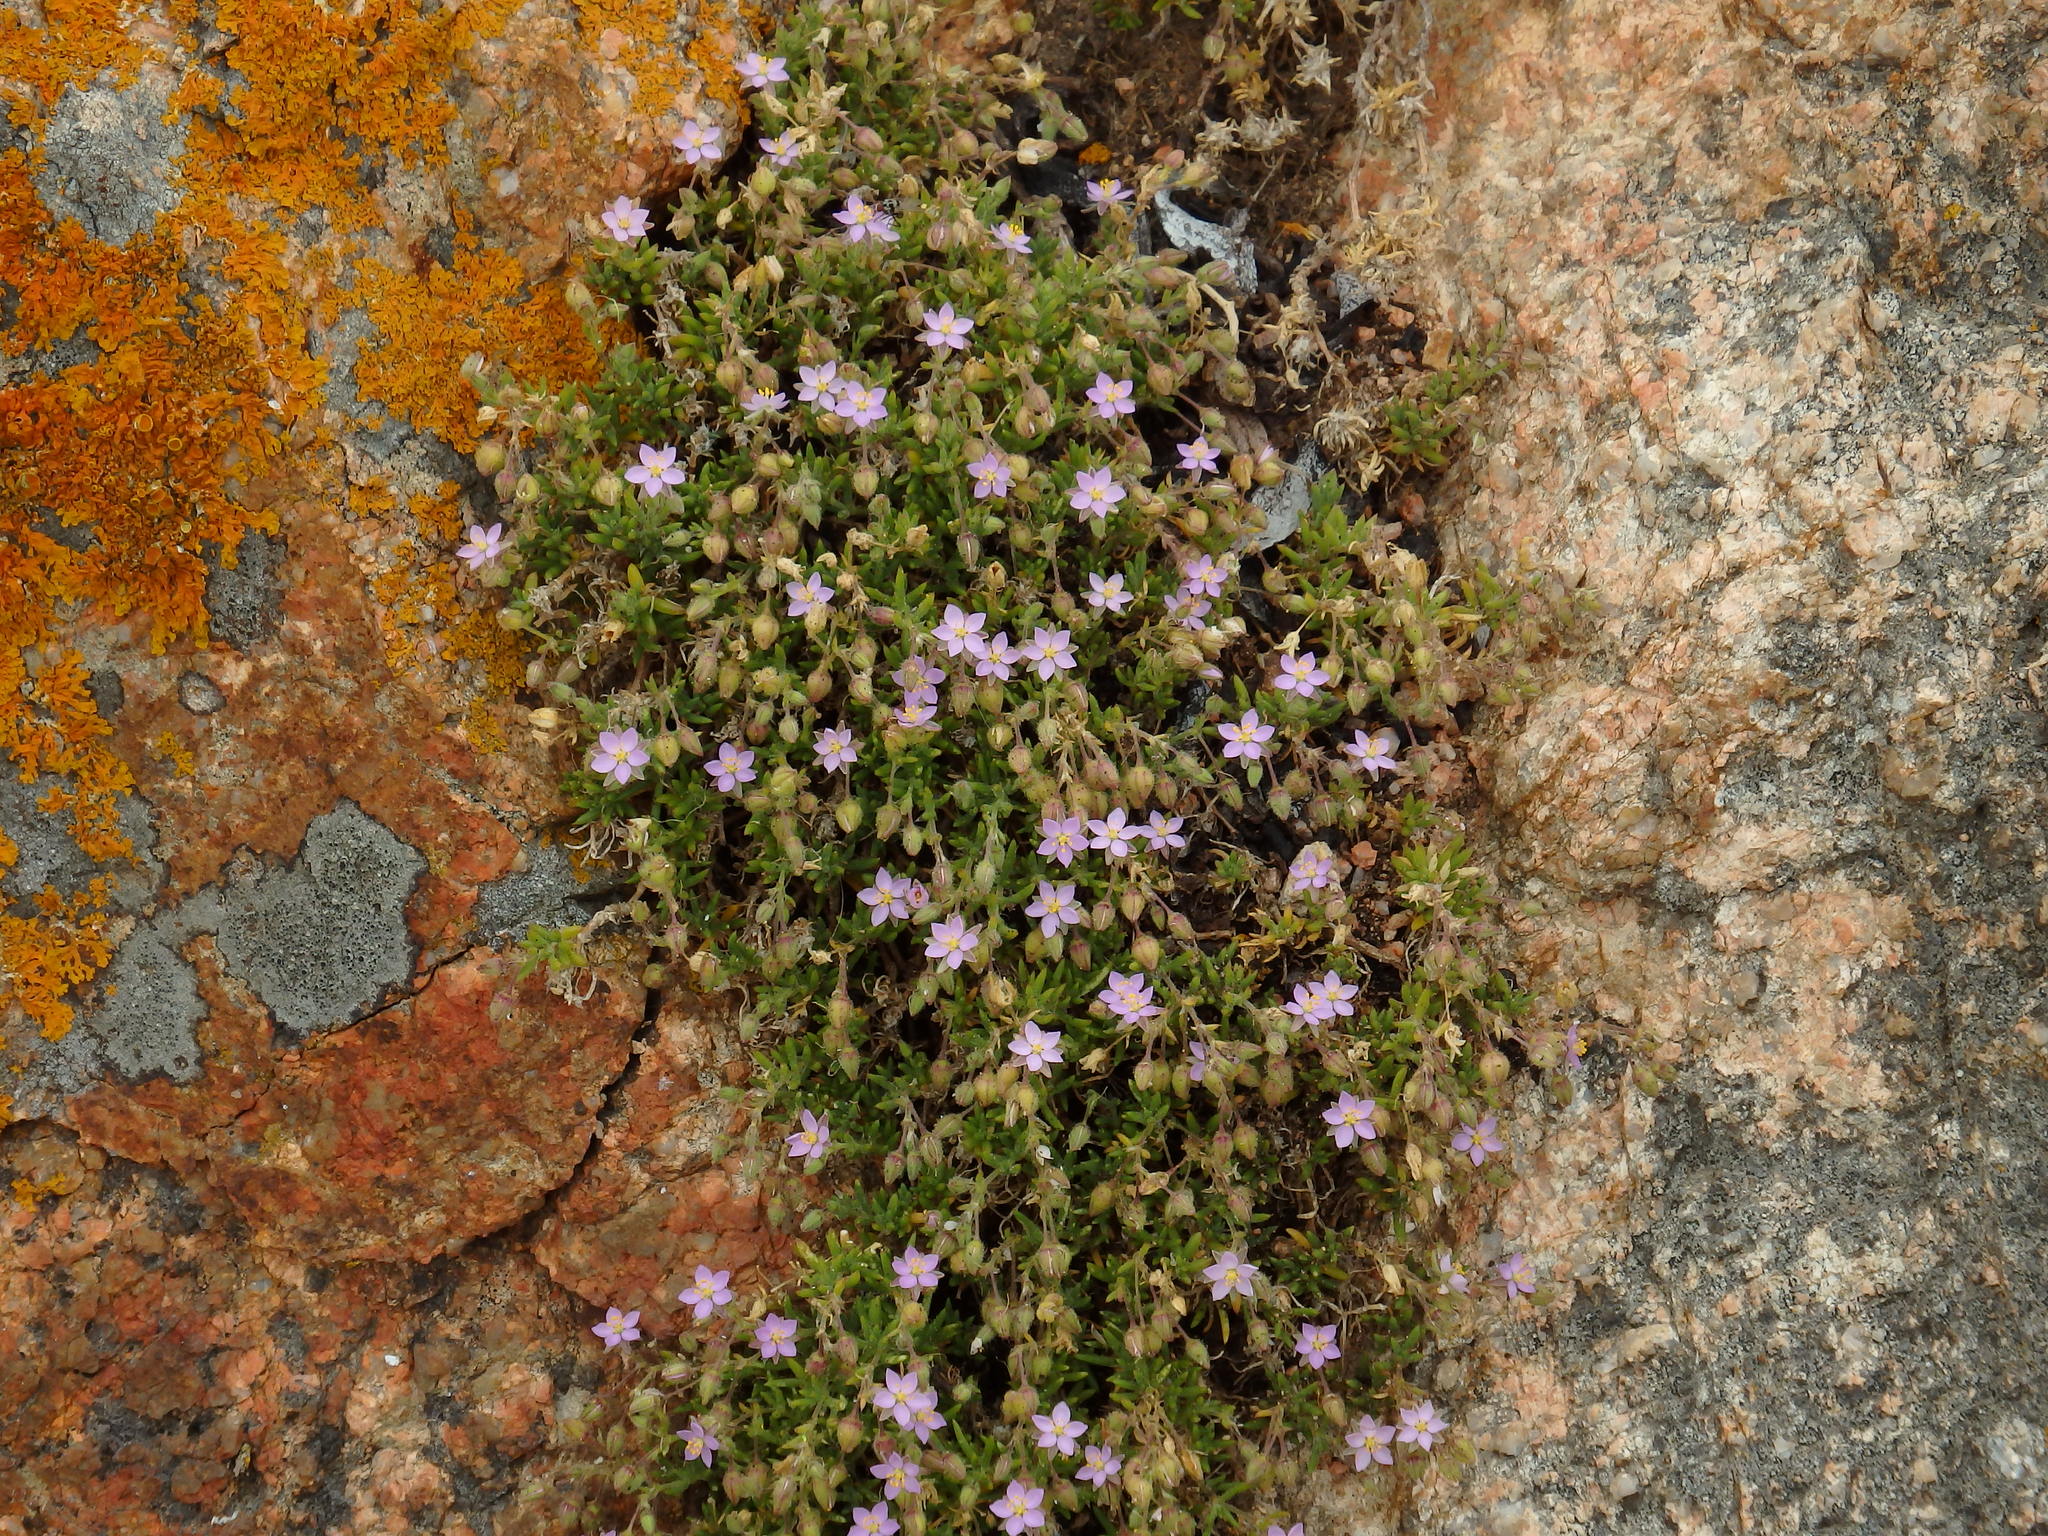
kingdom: Plantae
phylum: Tracheophyta
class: Magnoliopsida
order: Caryophyllales
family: Caryophyllaceae
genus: Spergularia
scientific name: Spergularia rupicola
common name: Cliff sand-spurrey
